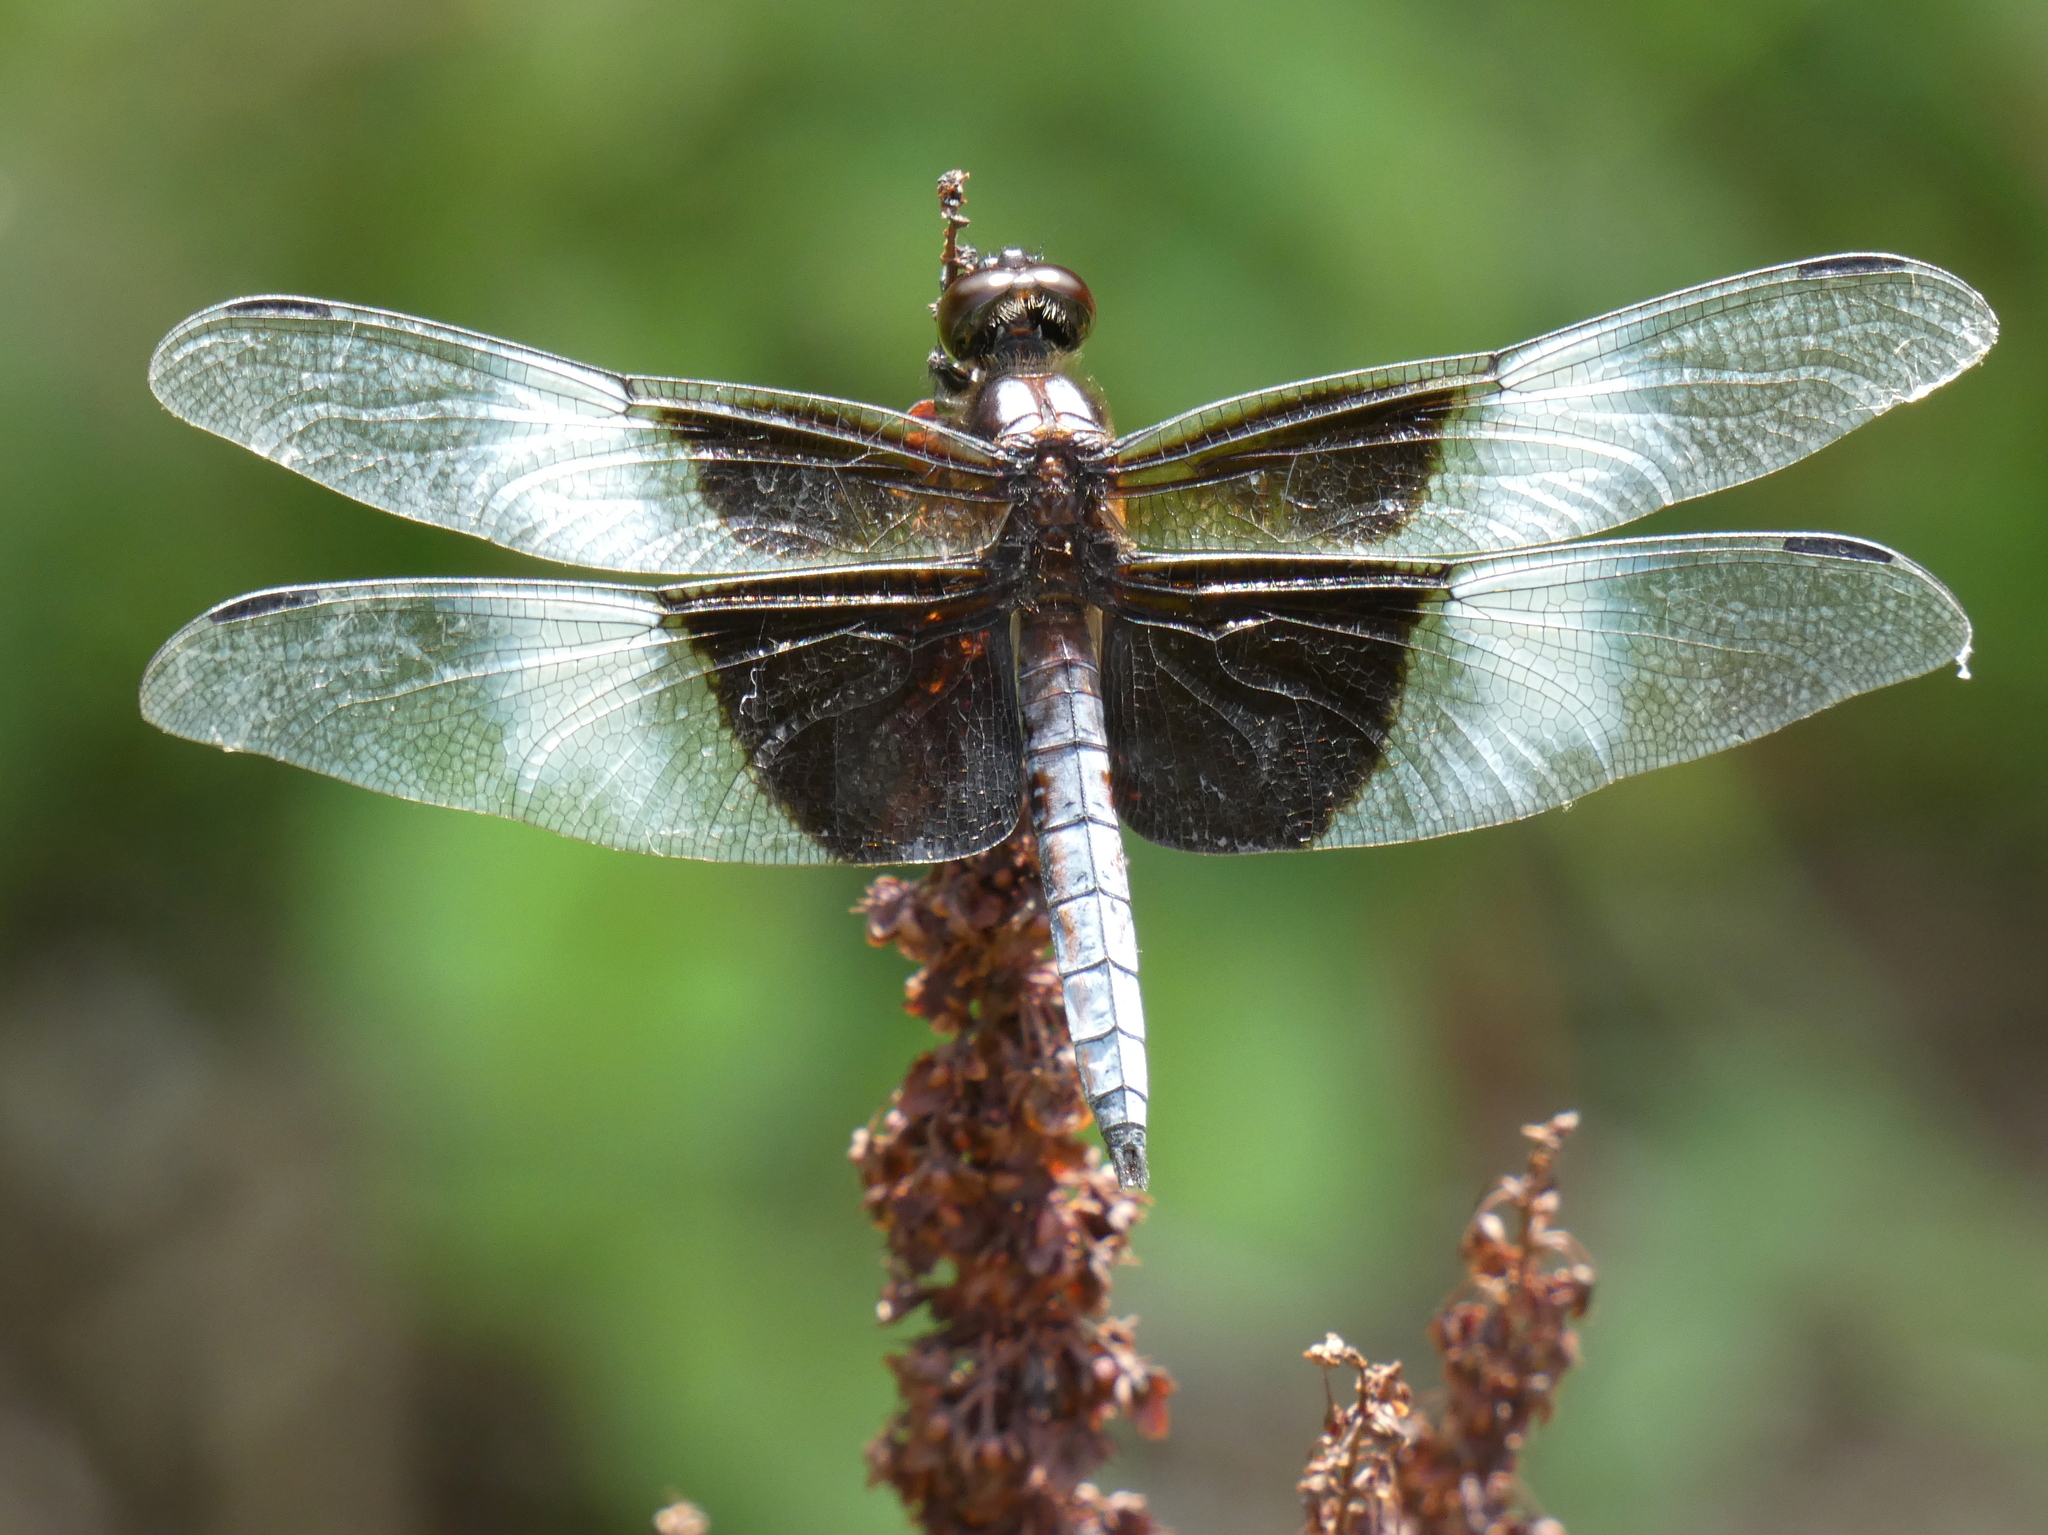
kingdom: Animalia
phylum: Arthropoda
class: Insecta
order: Odonata
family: Libellulidae
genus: Libellula
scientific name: Libellula luctuosa
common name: Widow skimmer
